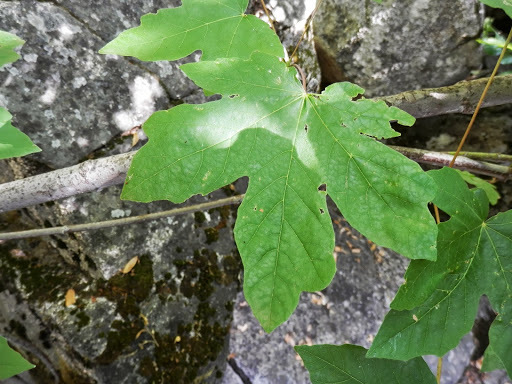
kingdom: Plantae
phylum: Tracheophyta
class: Magnoliopsida
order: Sapindales
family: Sapindaceae
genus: Acer
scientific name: Acer macrophyllum
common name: Oregon maple
